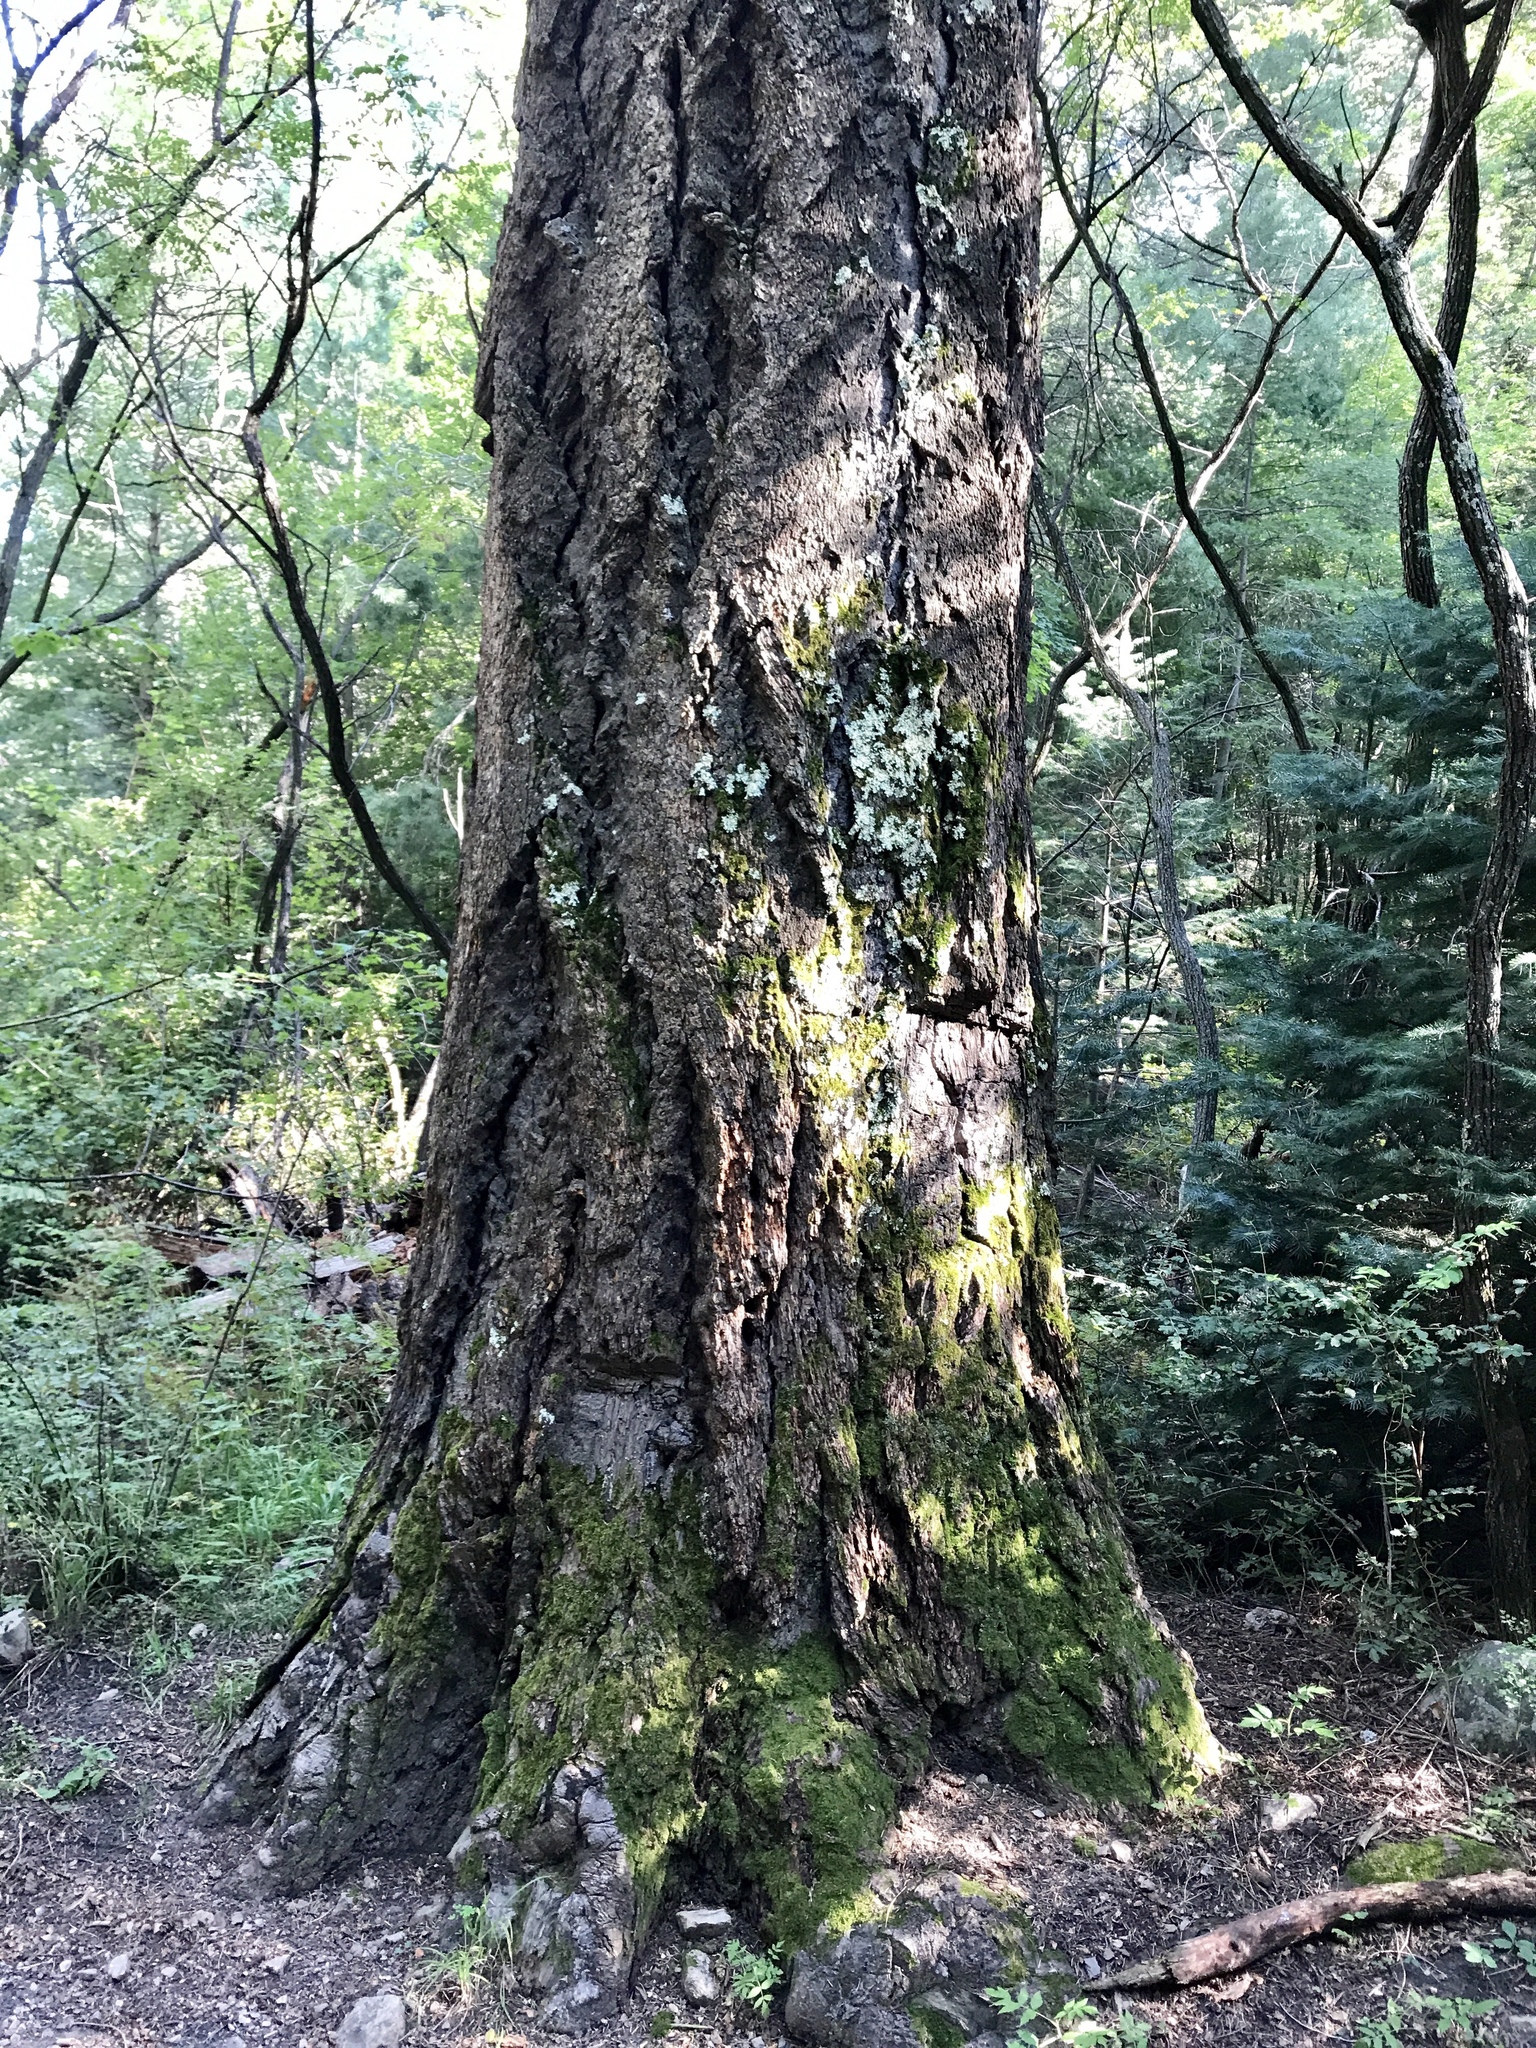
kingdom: Plantae
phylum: Tracheophyta
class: Pinopsida
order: Pinales
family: Pinaceae
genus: Pseudotsuga
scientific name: Pseudotsuga menziesii
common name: Douglas fir
